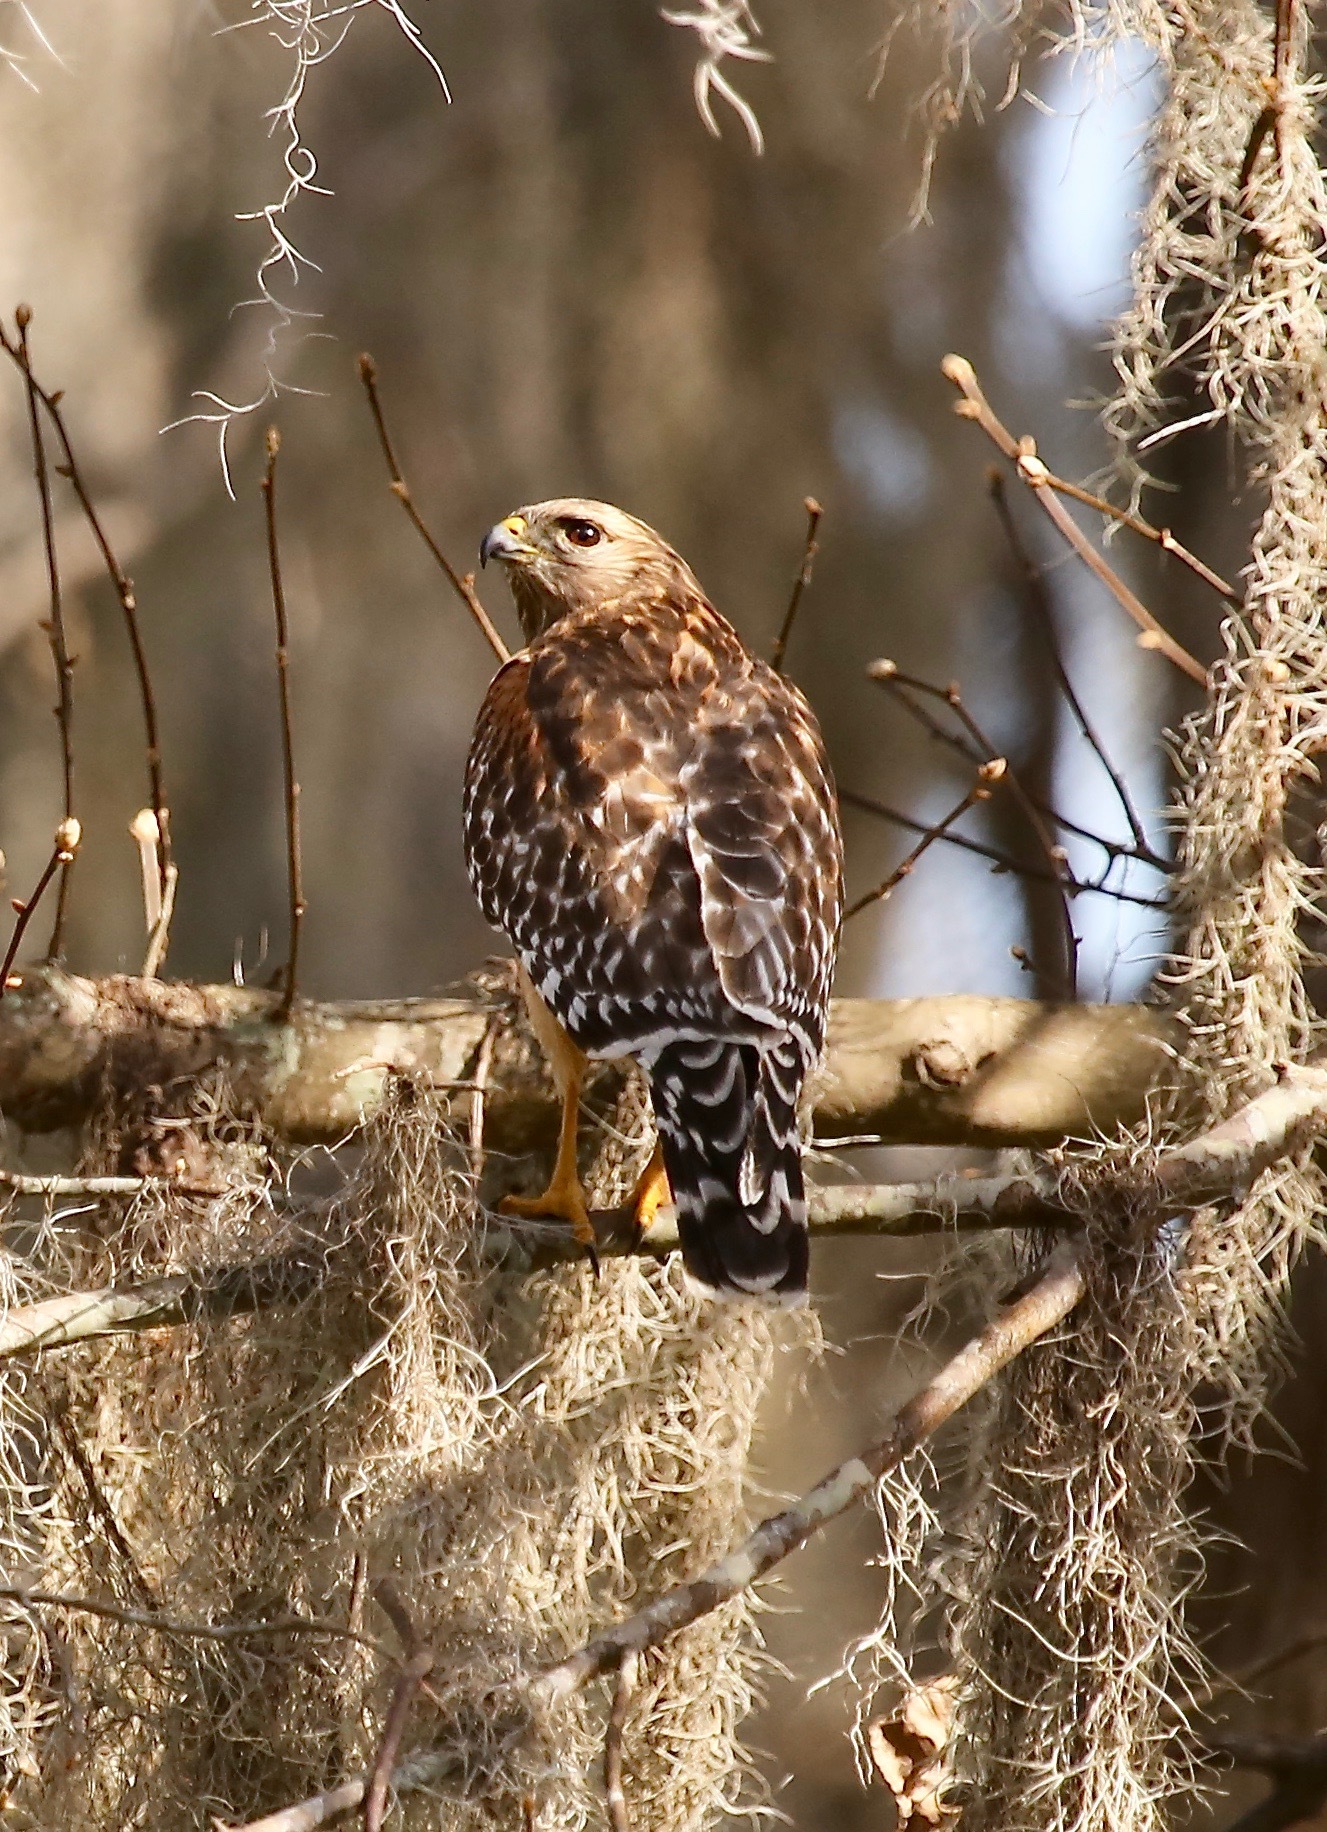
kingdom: Animalia
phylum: Chordata
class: Aves
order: Accipitriformes
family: Accipitridae
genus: Buteo
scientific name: Buteo lineatus
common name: Red-shouldered hawk
